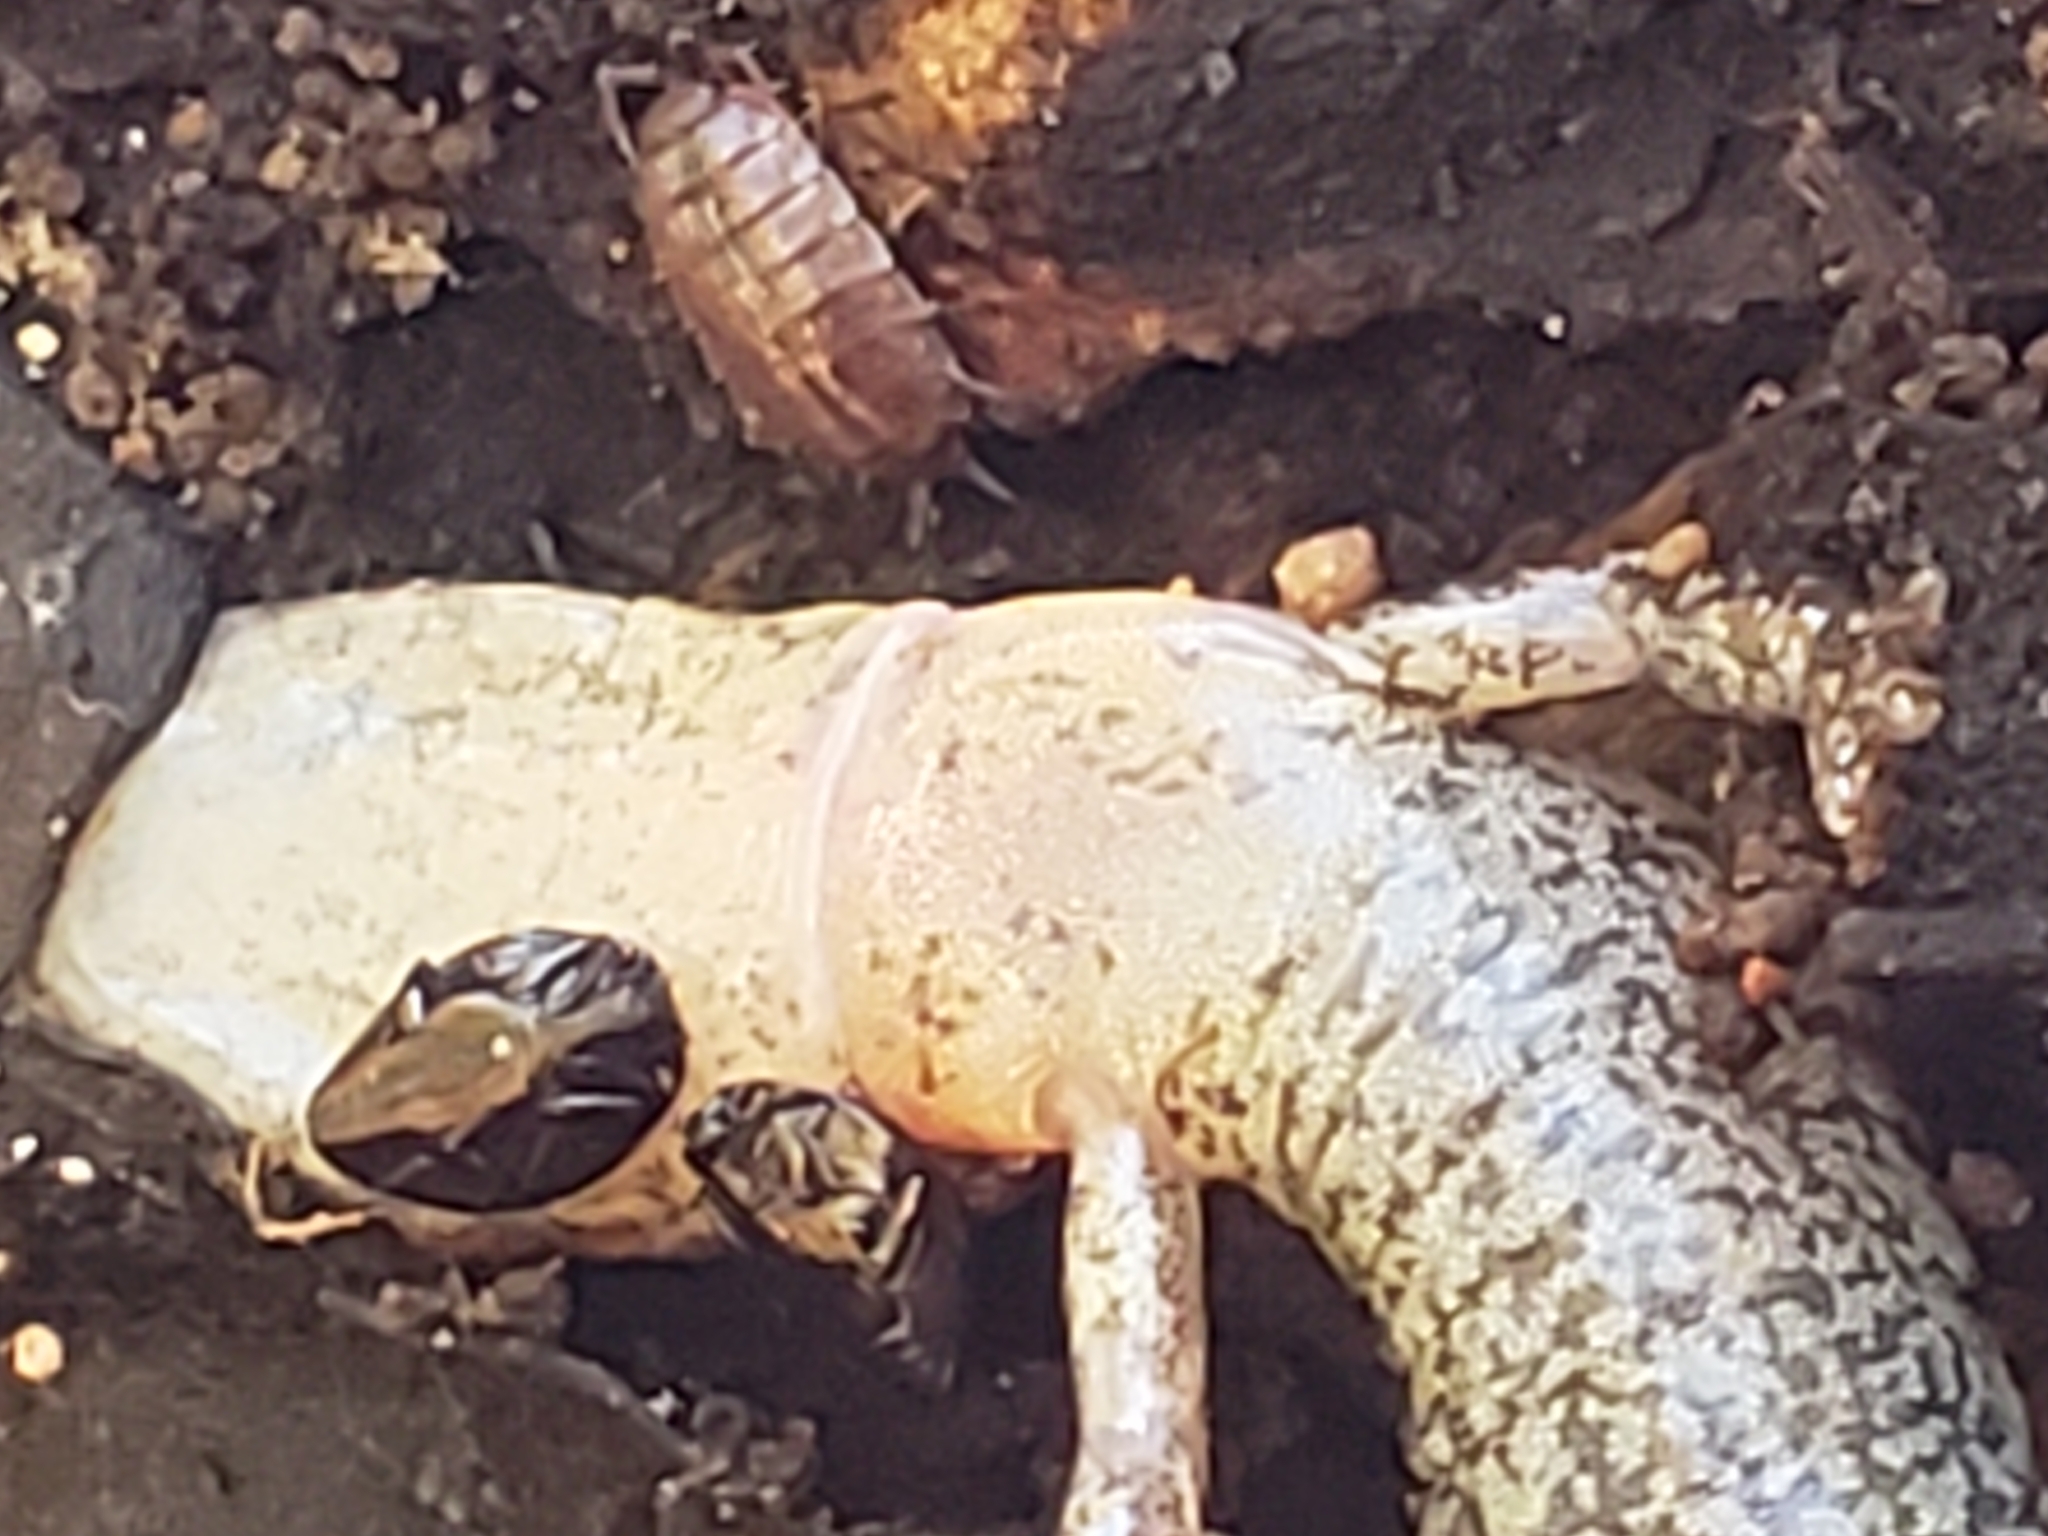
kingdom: Animalia
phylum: Chordata
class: Amphibia
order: Caudata
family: Plethodontidae
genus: Plethodon
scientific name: Plethodon cinereus
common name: Redback salamander
